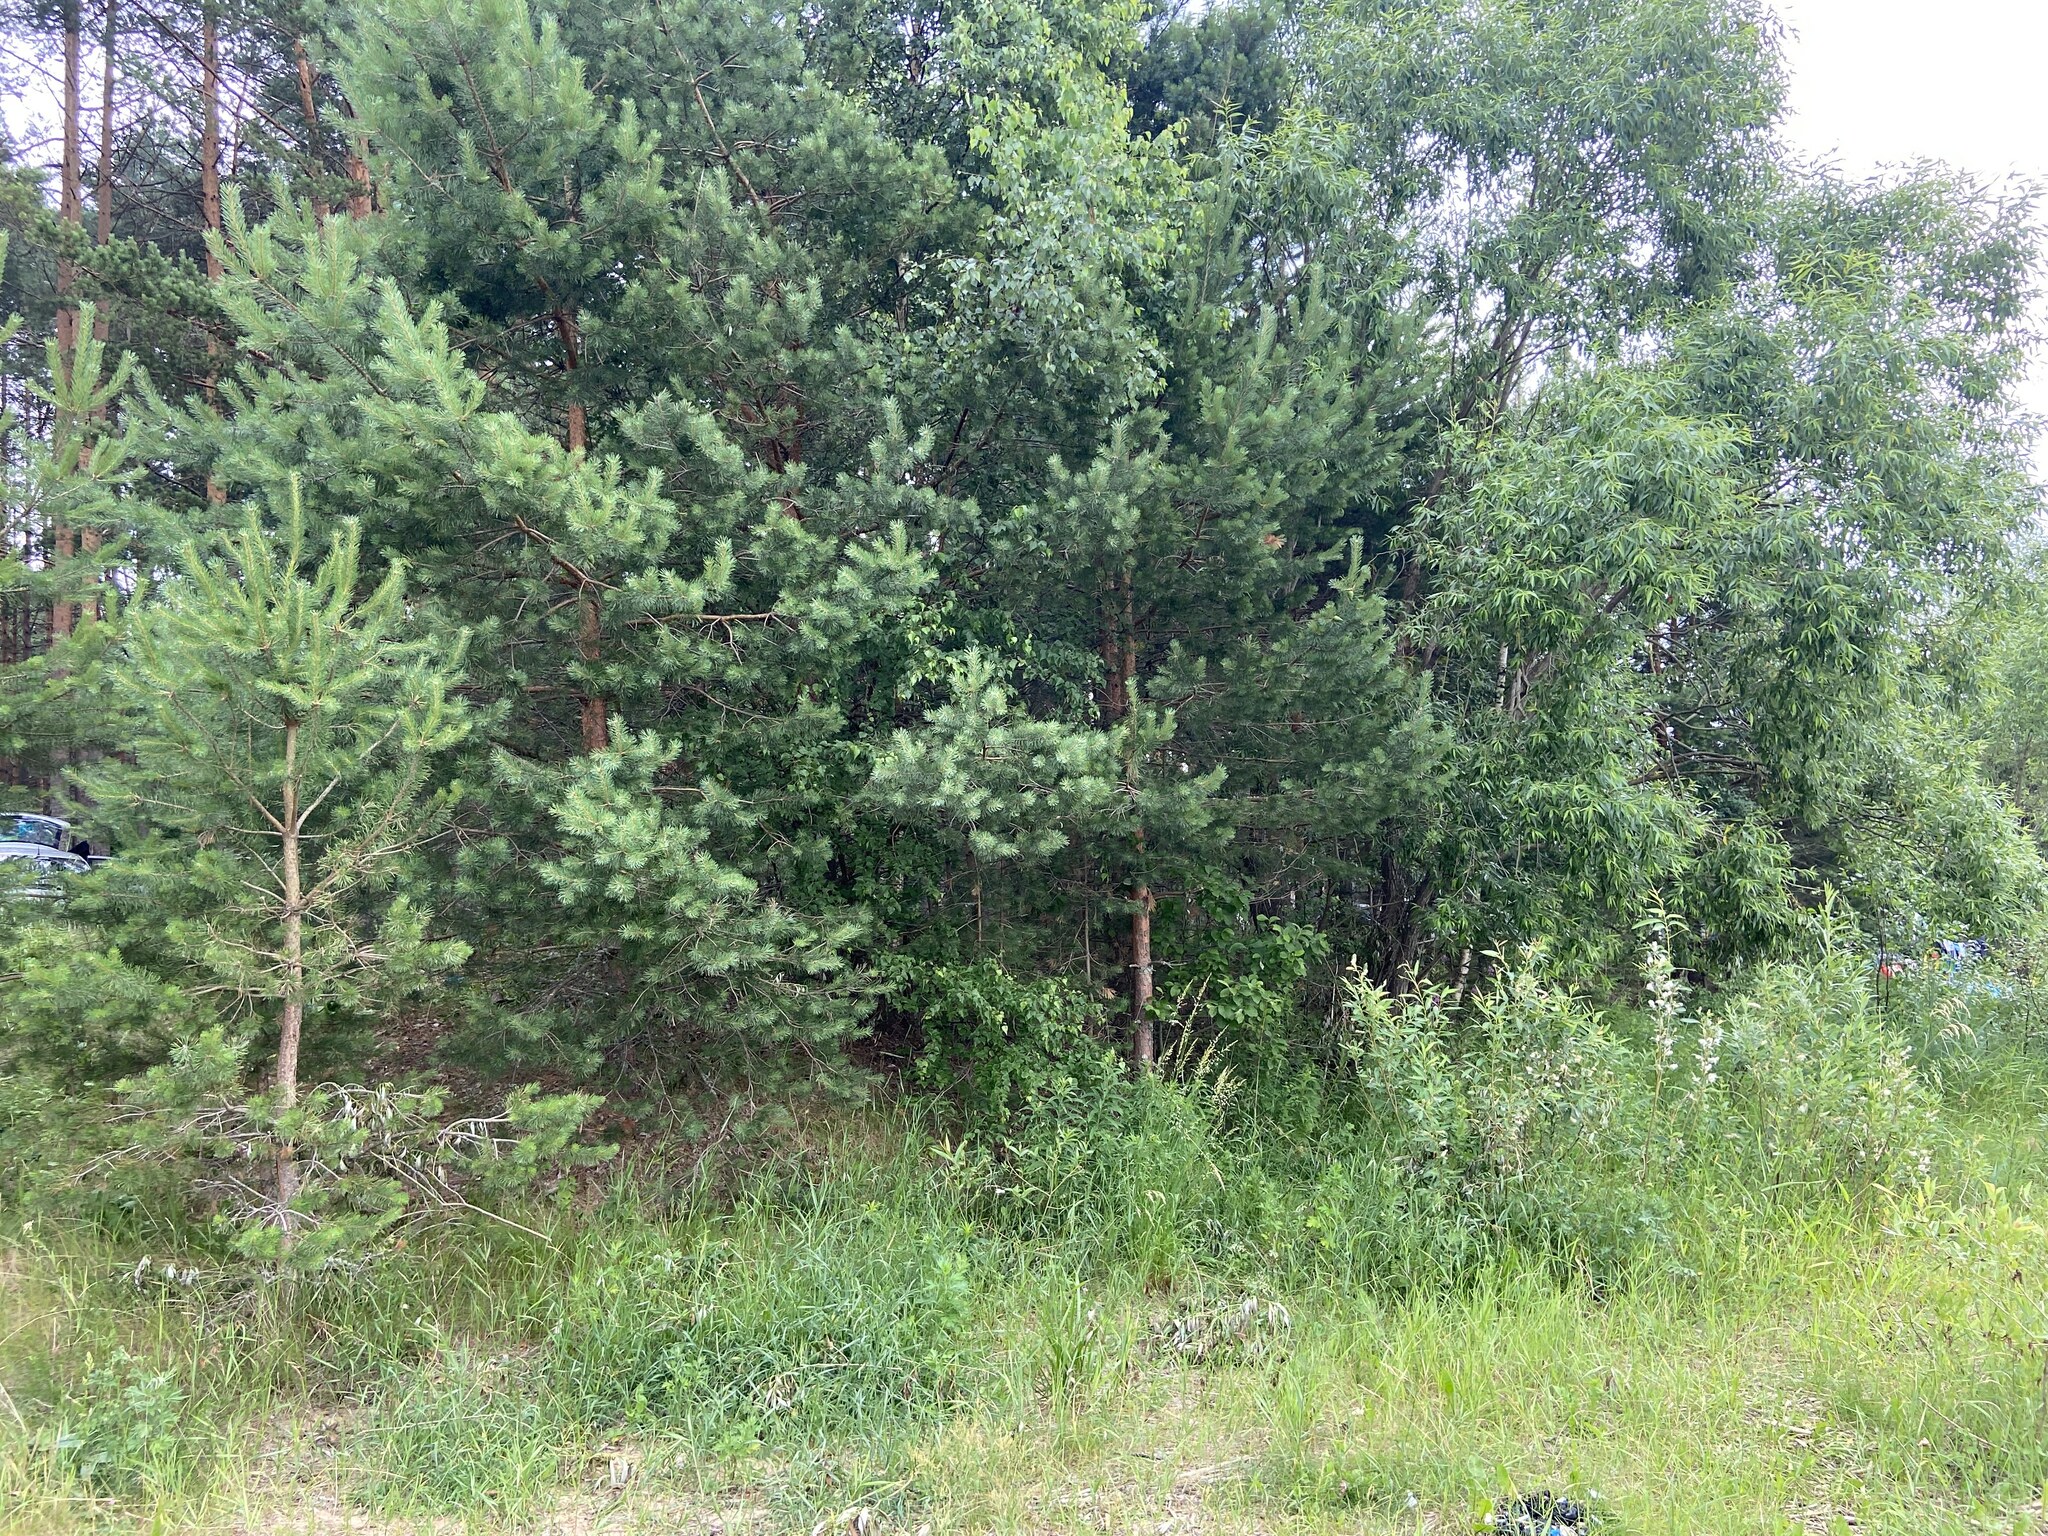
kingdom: Plantae
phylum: Tracheophyta
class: Pinopsida
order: Pinales
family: Pinaceae
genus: Pinus
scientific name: Pinus sylvestris
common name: Scots pine
